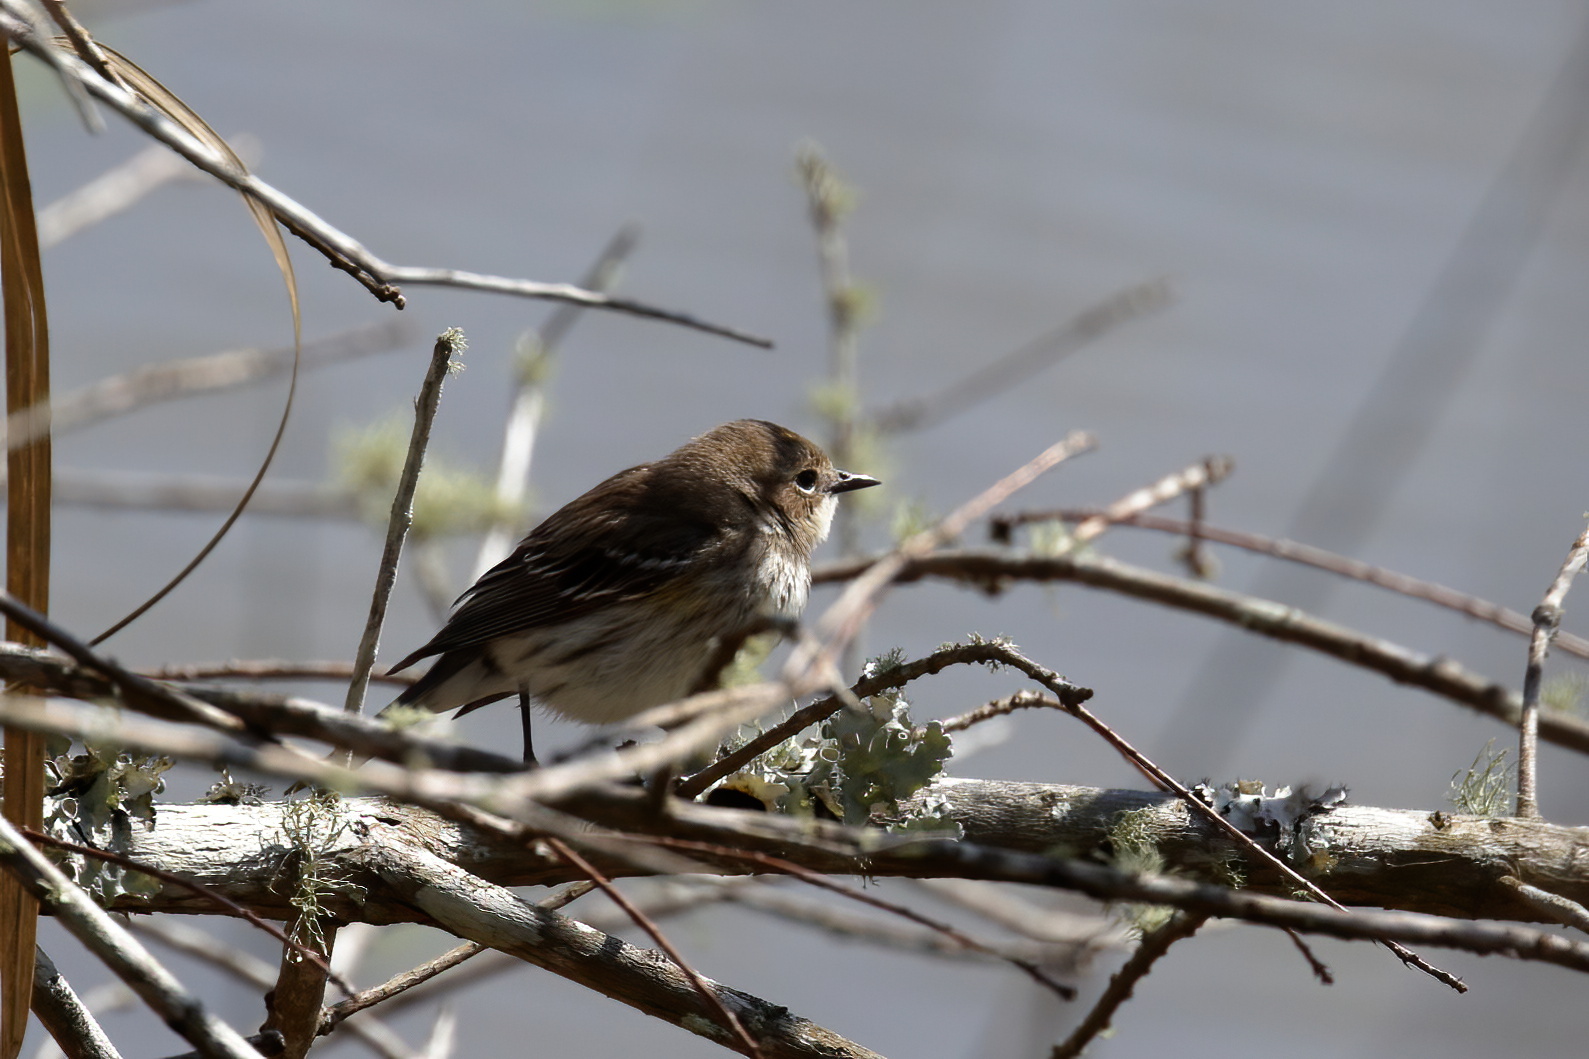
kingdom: Animalia
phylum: Chordata
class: Aves
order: Passeriformes
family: Parulidae
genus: Setophaga
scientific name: Setophaga coronata
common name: Myrtle warbler
